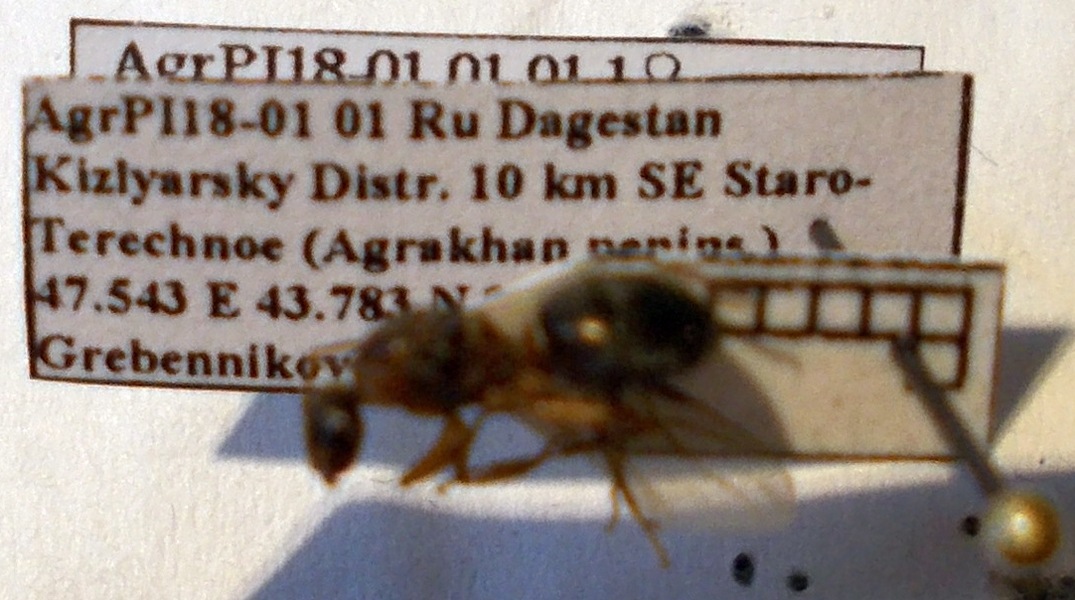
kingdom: Animalia
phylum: Arthropoda
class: Insecta
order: Hymenoptera
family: Formicidae
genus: Formica
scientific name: Formica cunicularia
